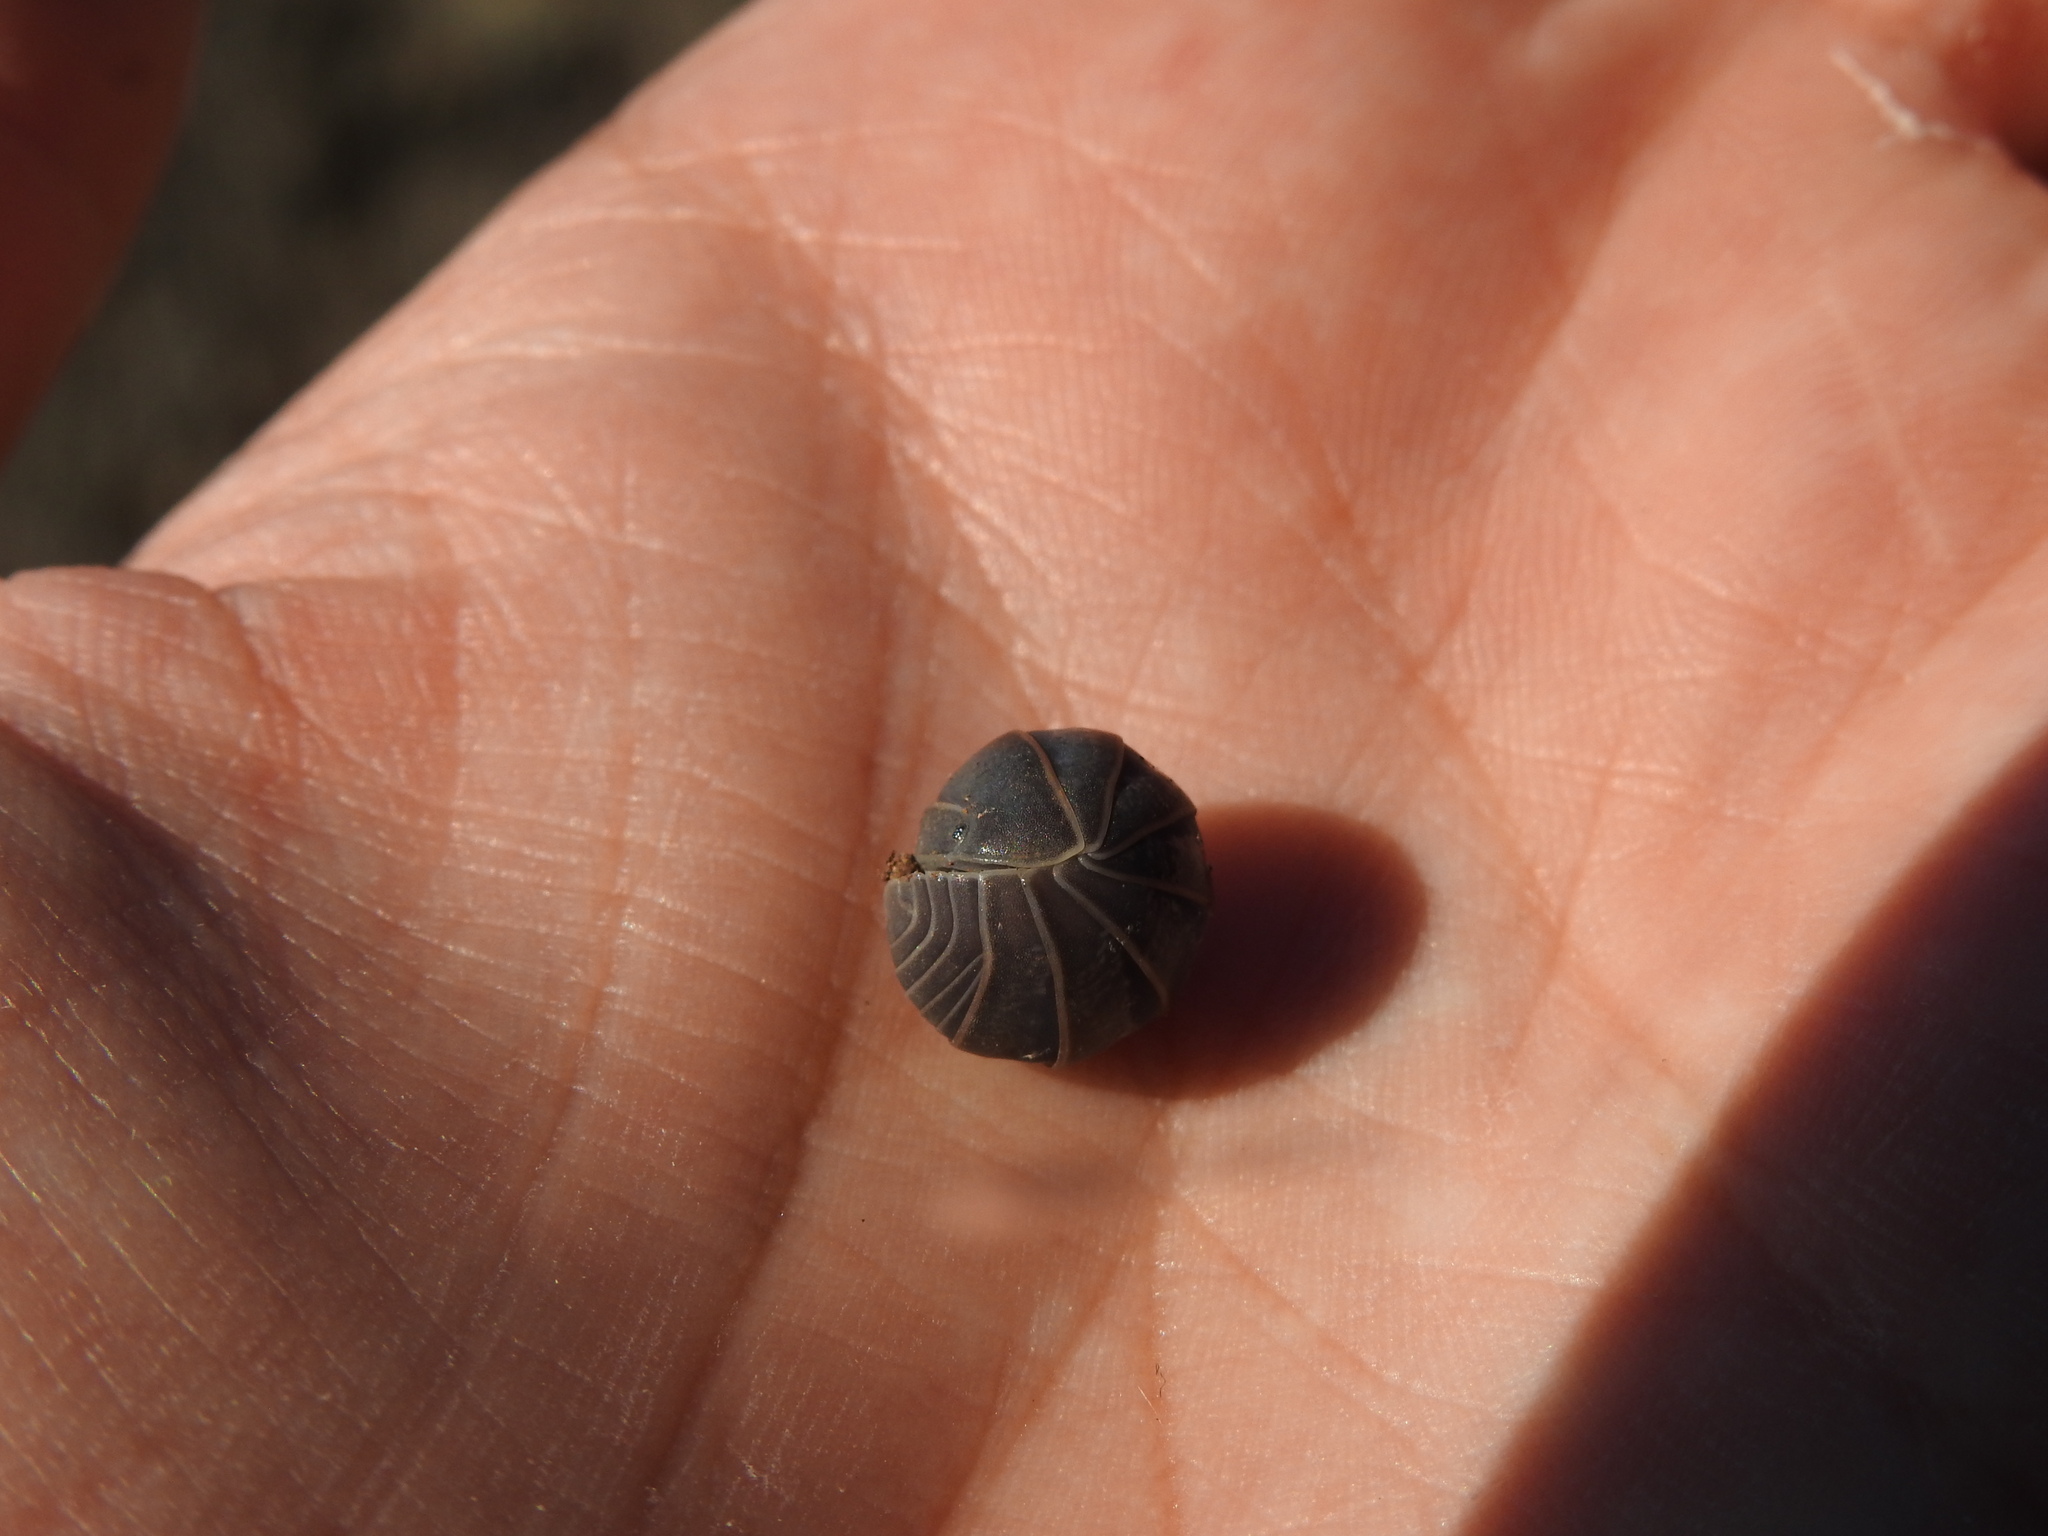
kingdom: Animalia
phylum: Arthropoda
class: Malacostraca
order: Isopoda
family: Armadillidae
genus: Armadillo
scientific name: Armadillo officinalis
